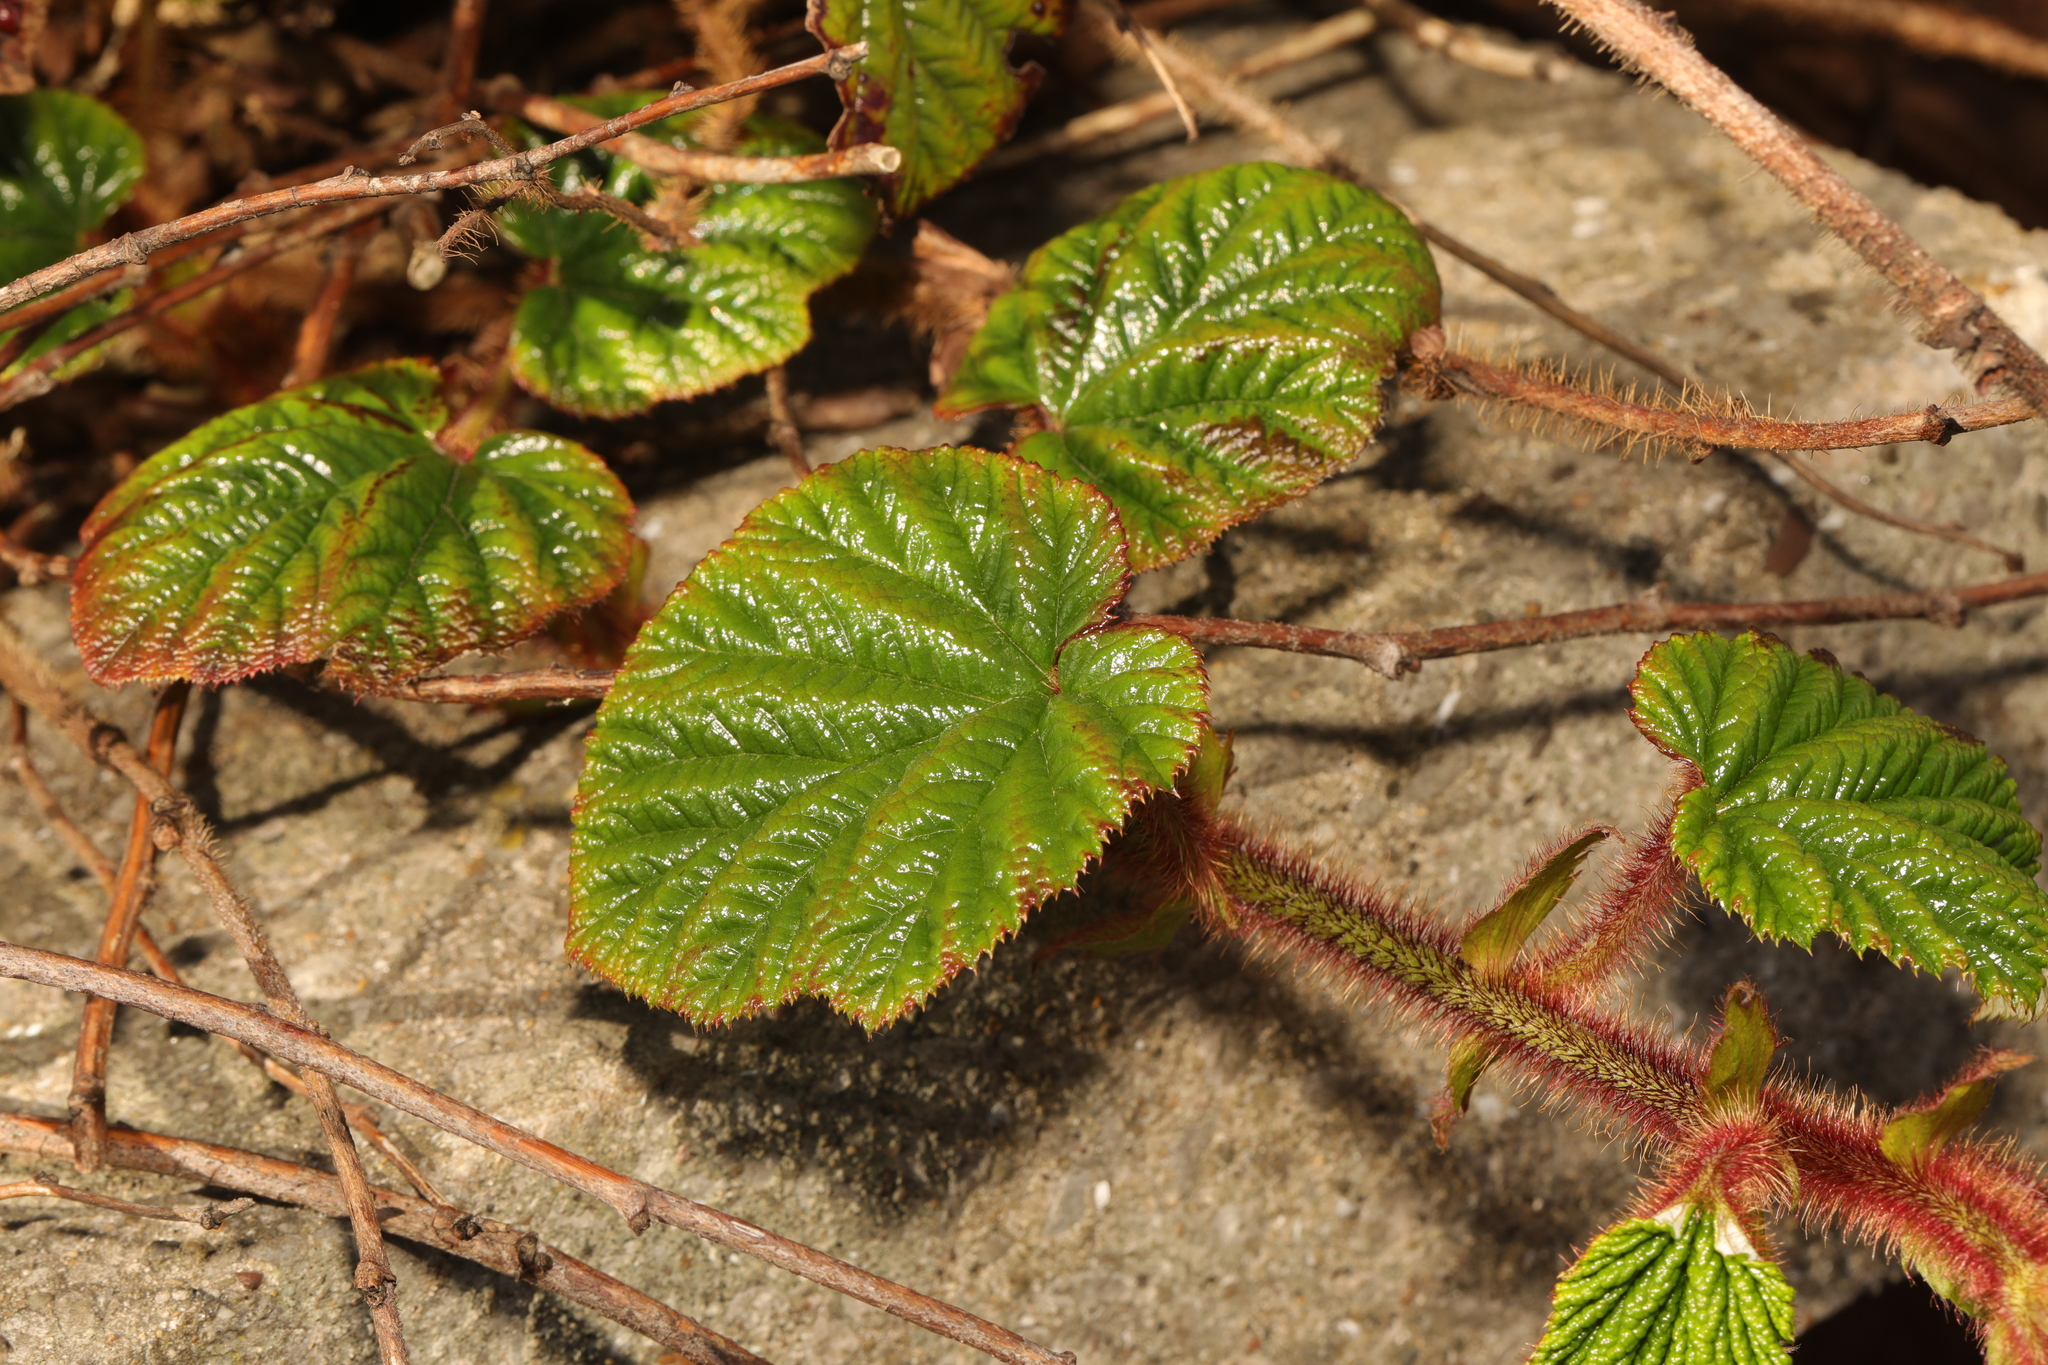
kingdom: Plantae
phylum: Tracheophyta
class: Magnoliopsida
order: Rosales
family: Rosaceae
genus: Rubus
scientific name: Rubus tricolor
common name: Chinese bramble
